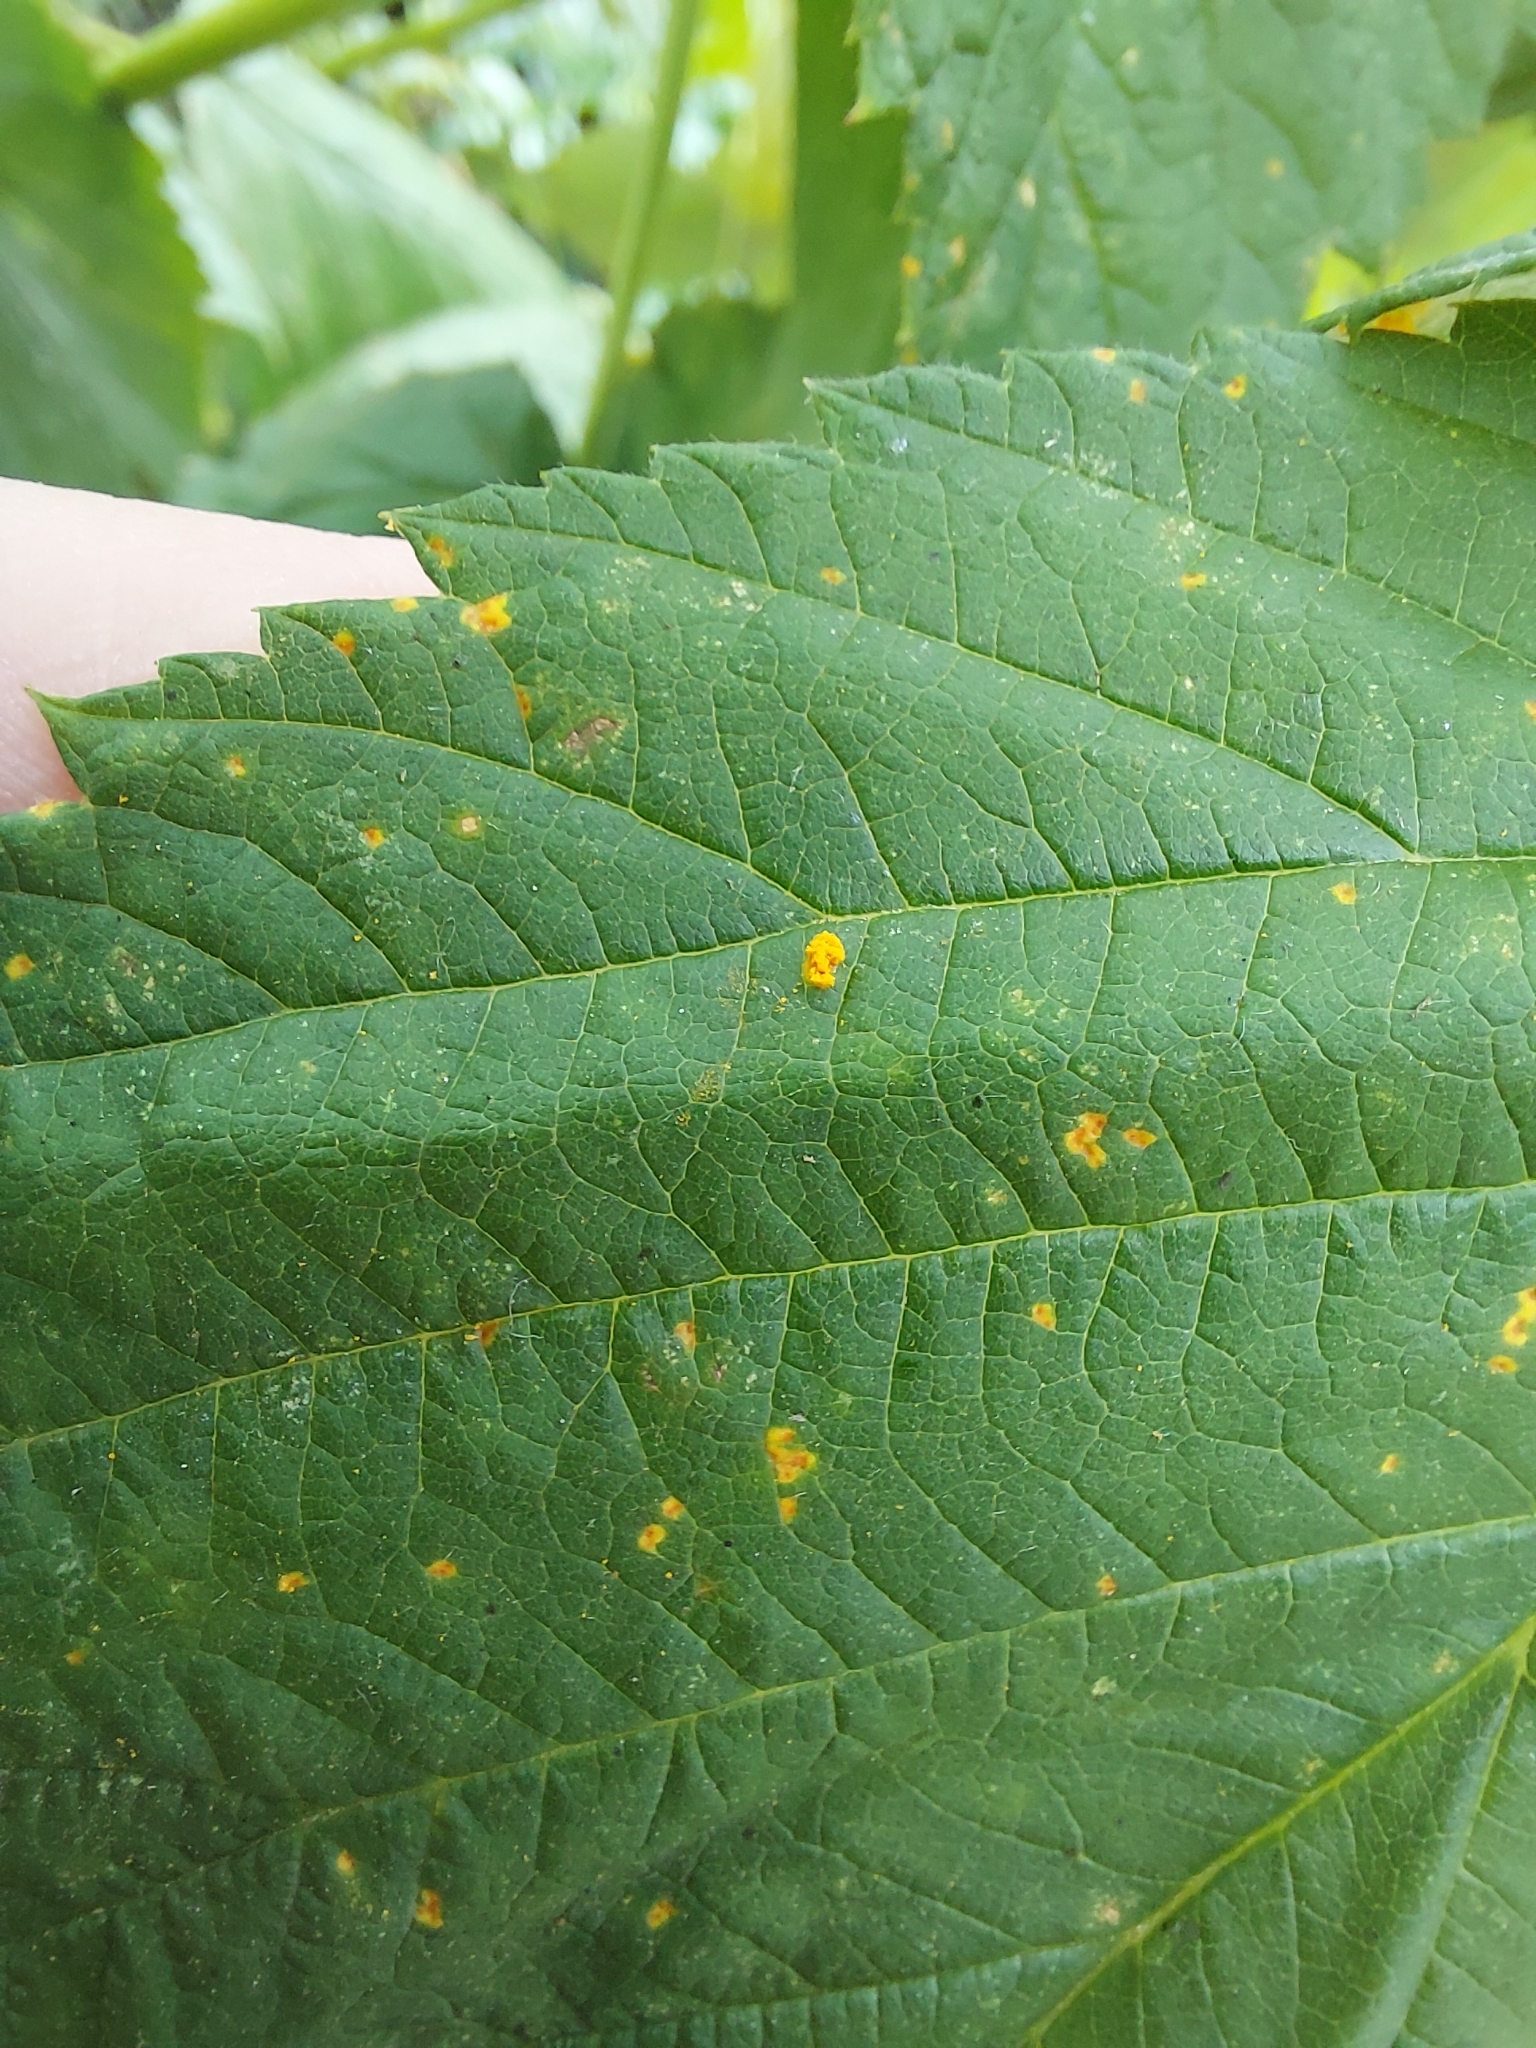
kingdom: Fungi
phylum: Basidiomycota
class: Pucciniomycetes
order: Pucciniales
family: Phragmidiaceae
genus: Phragmidium
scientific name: Phragmidium rubi-idaei
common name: Raspberry rust
